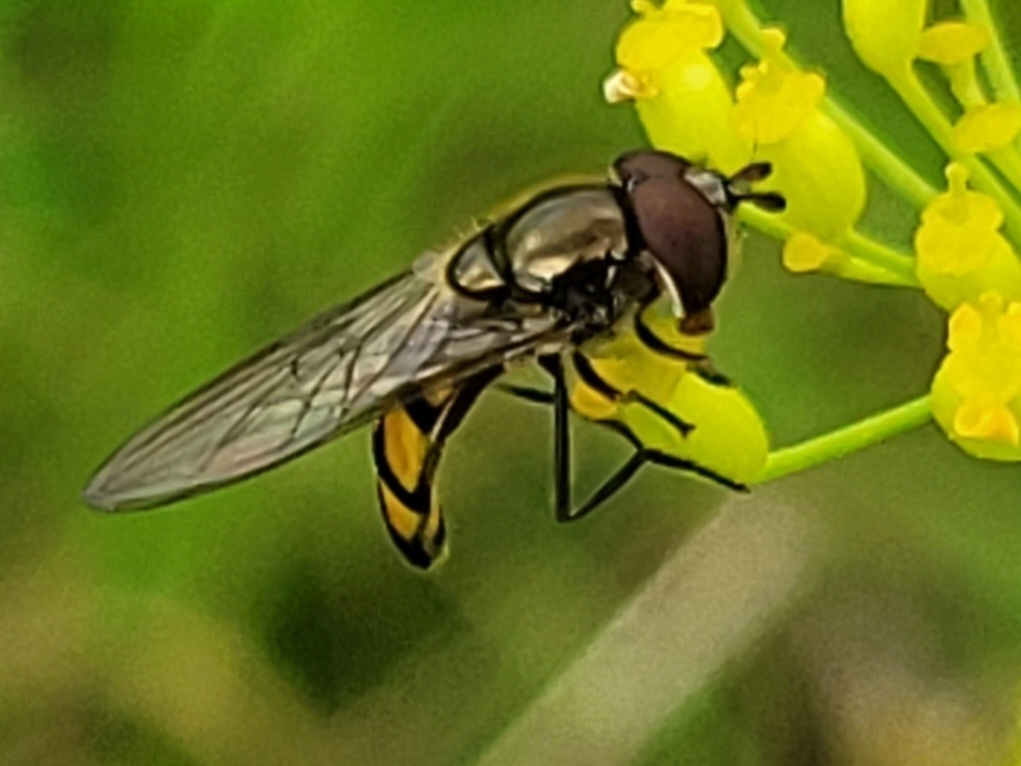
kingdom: Animalia
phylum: Arthropoda
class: Insecta
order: Diptera
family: Syrphidae
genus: Xanthandrus
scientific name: Xanthandrus comtus
